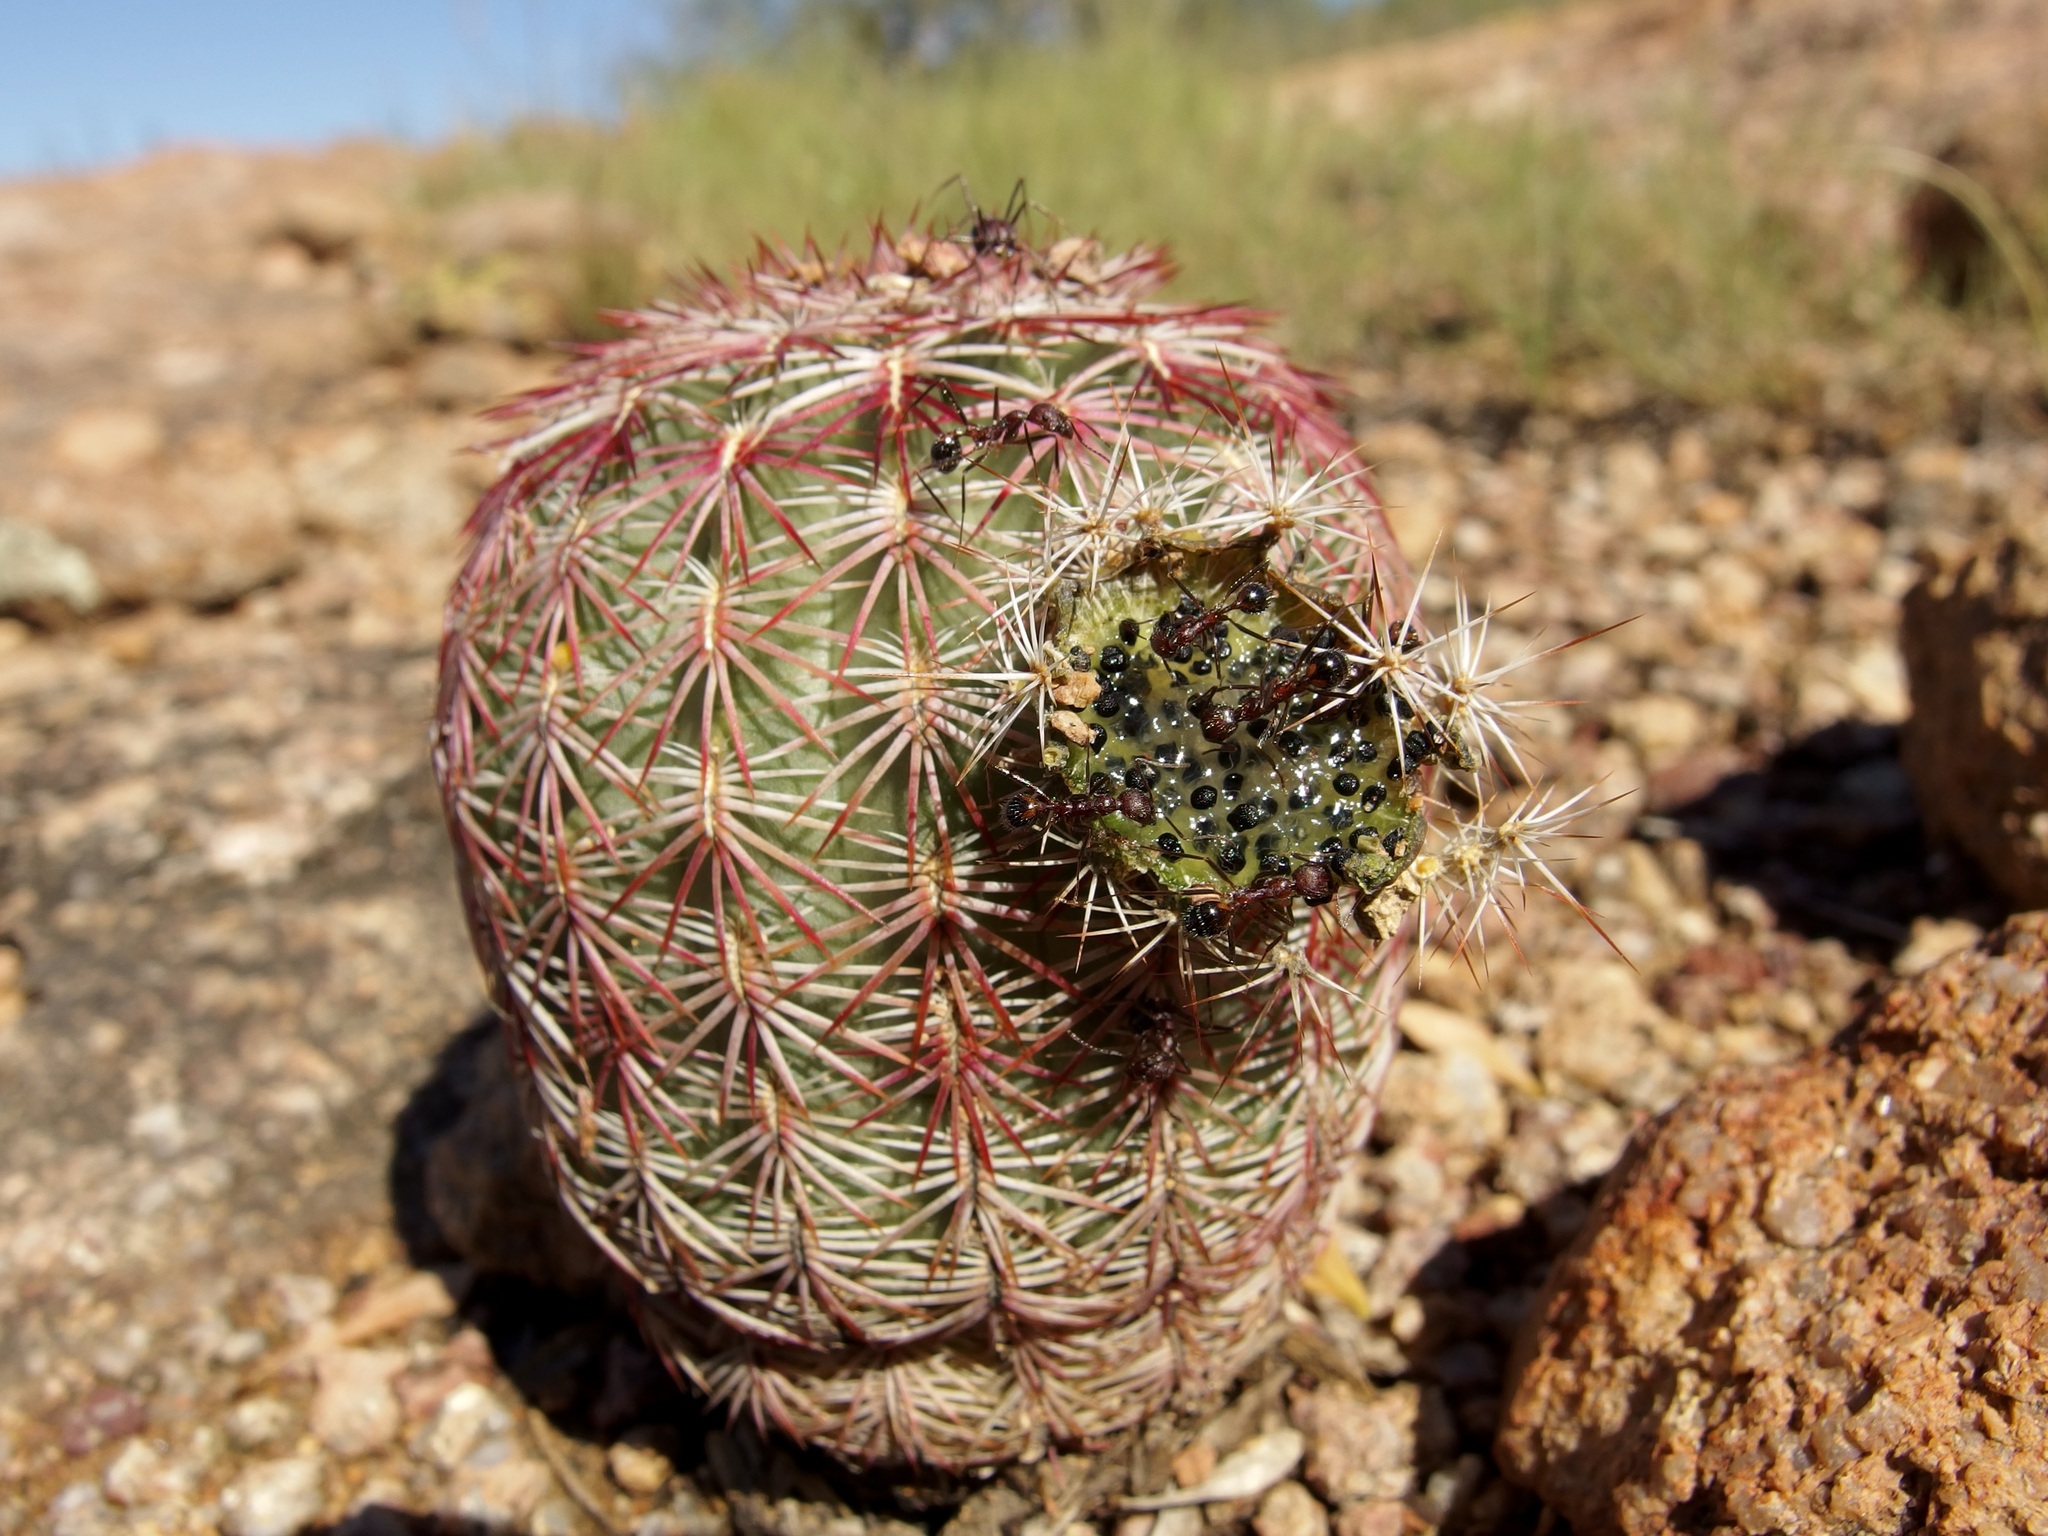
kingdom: Plantae
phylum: Tracheophyta
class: Magnoliopsida
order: Caryophyllales
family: Cactaceae
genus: Echinocereus
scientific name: Echinocereus rigidissimus
